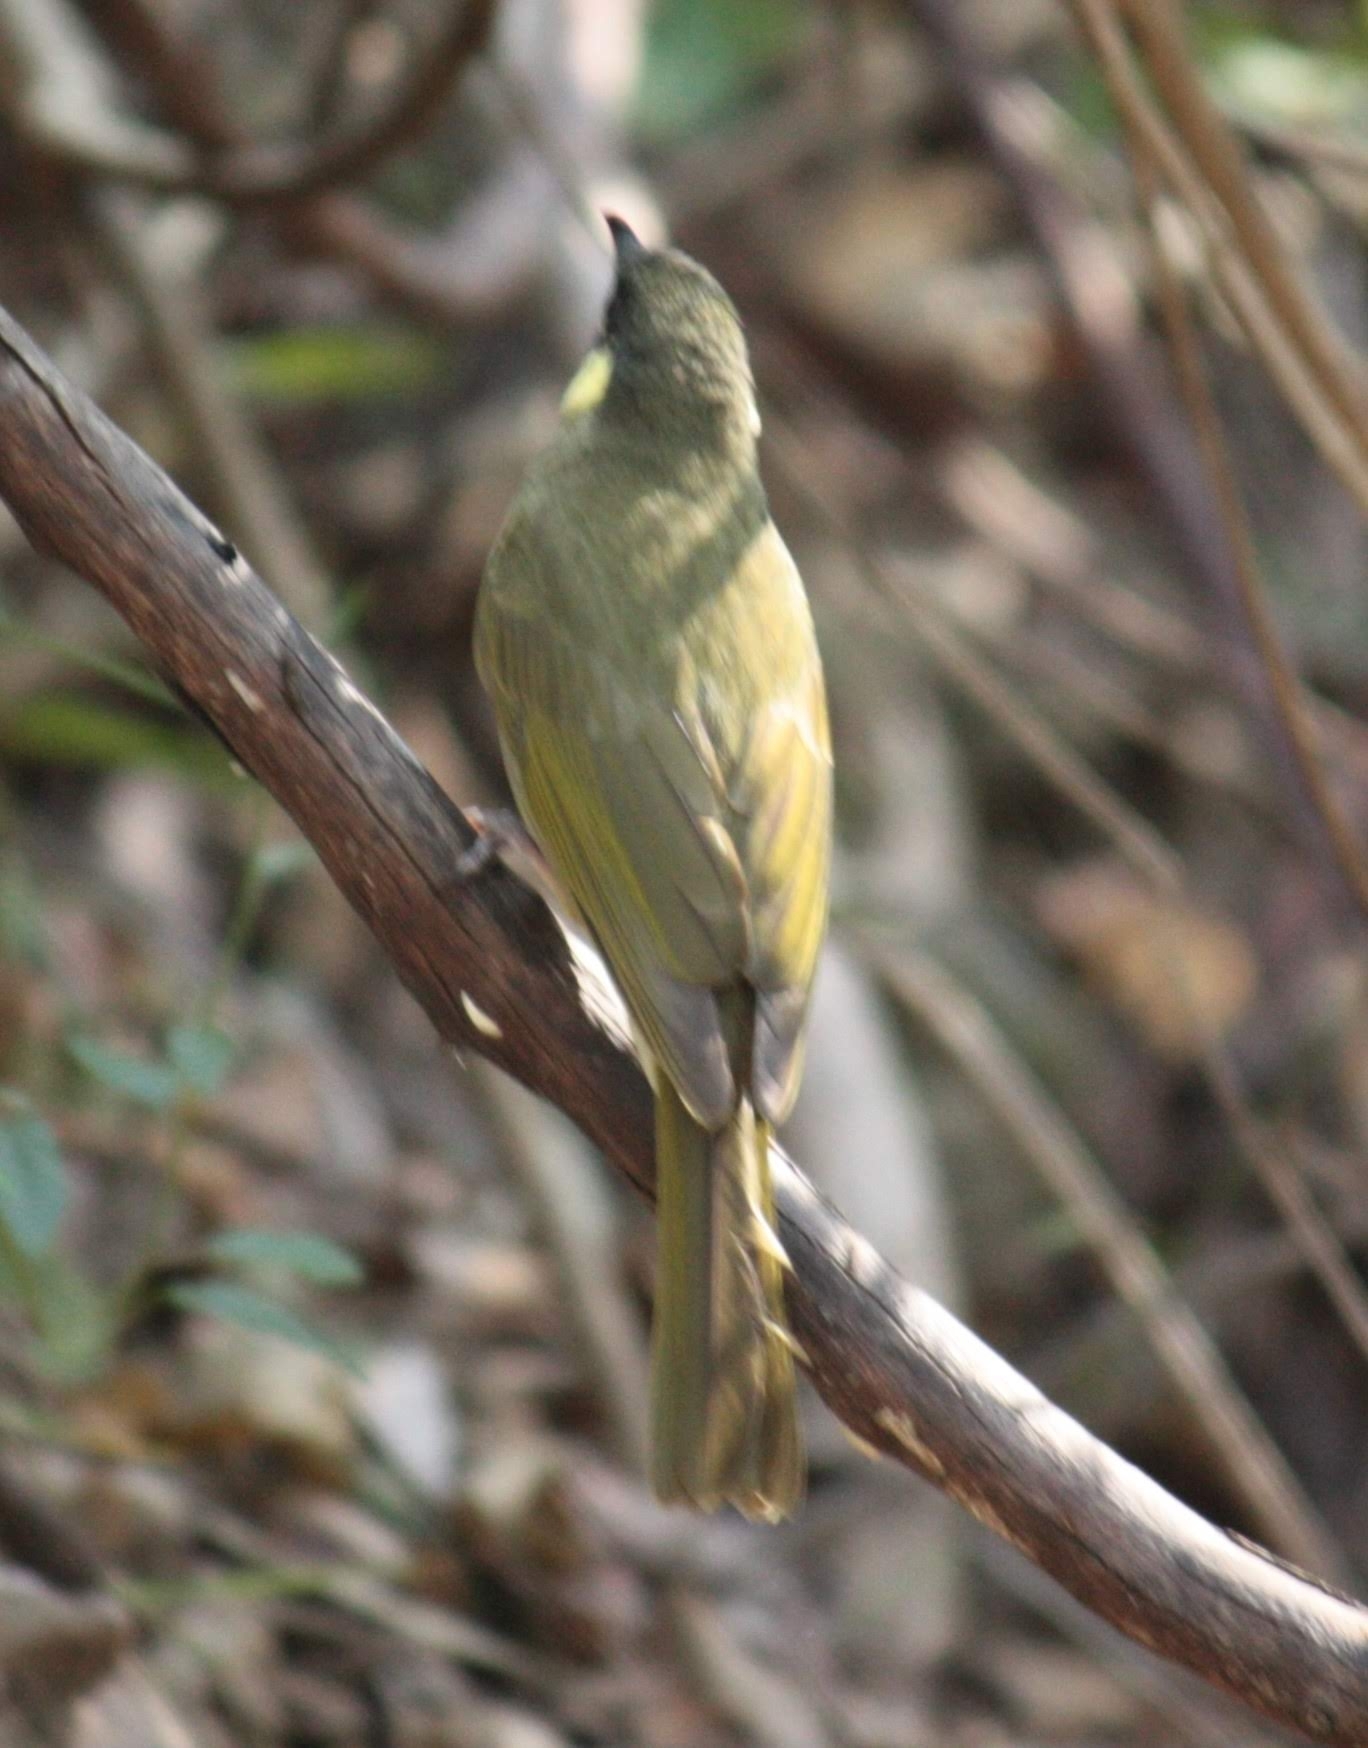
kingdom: Animalia
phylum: Chordata
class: Aves
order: Passeriformes
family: Meliphagidae
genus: Meliphaga
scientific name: Meliphaga lewinii
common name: Lewin's honeyeater
